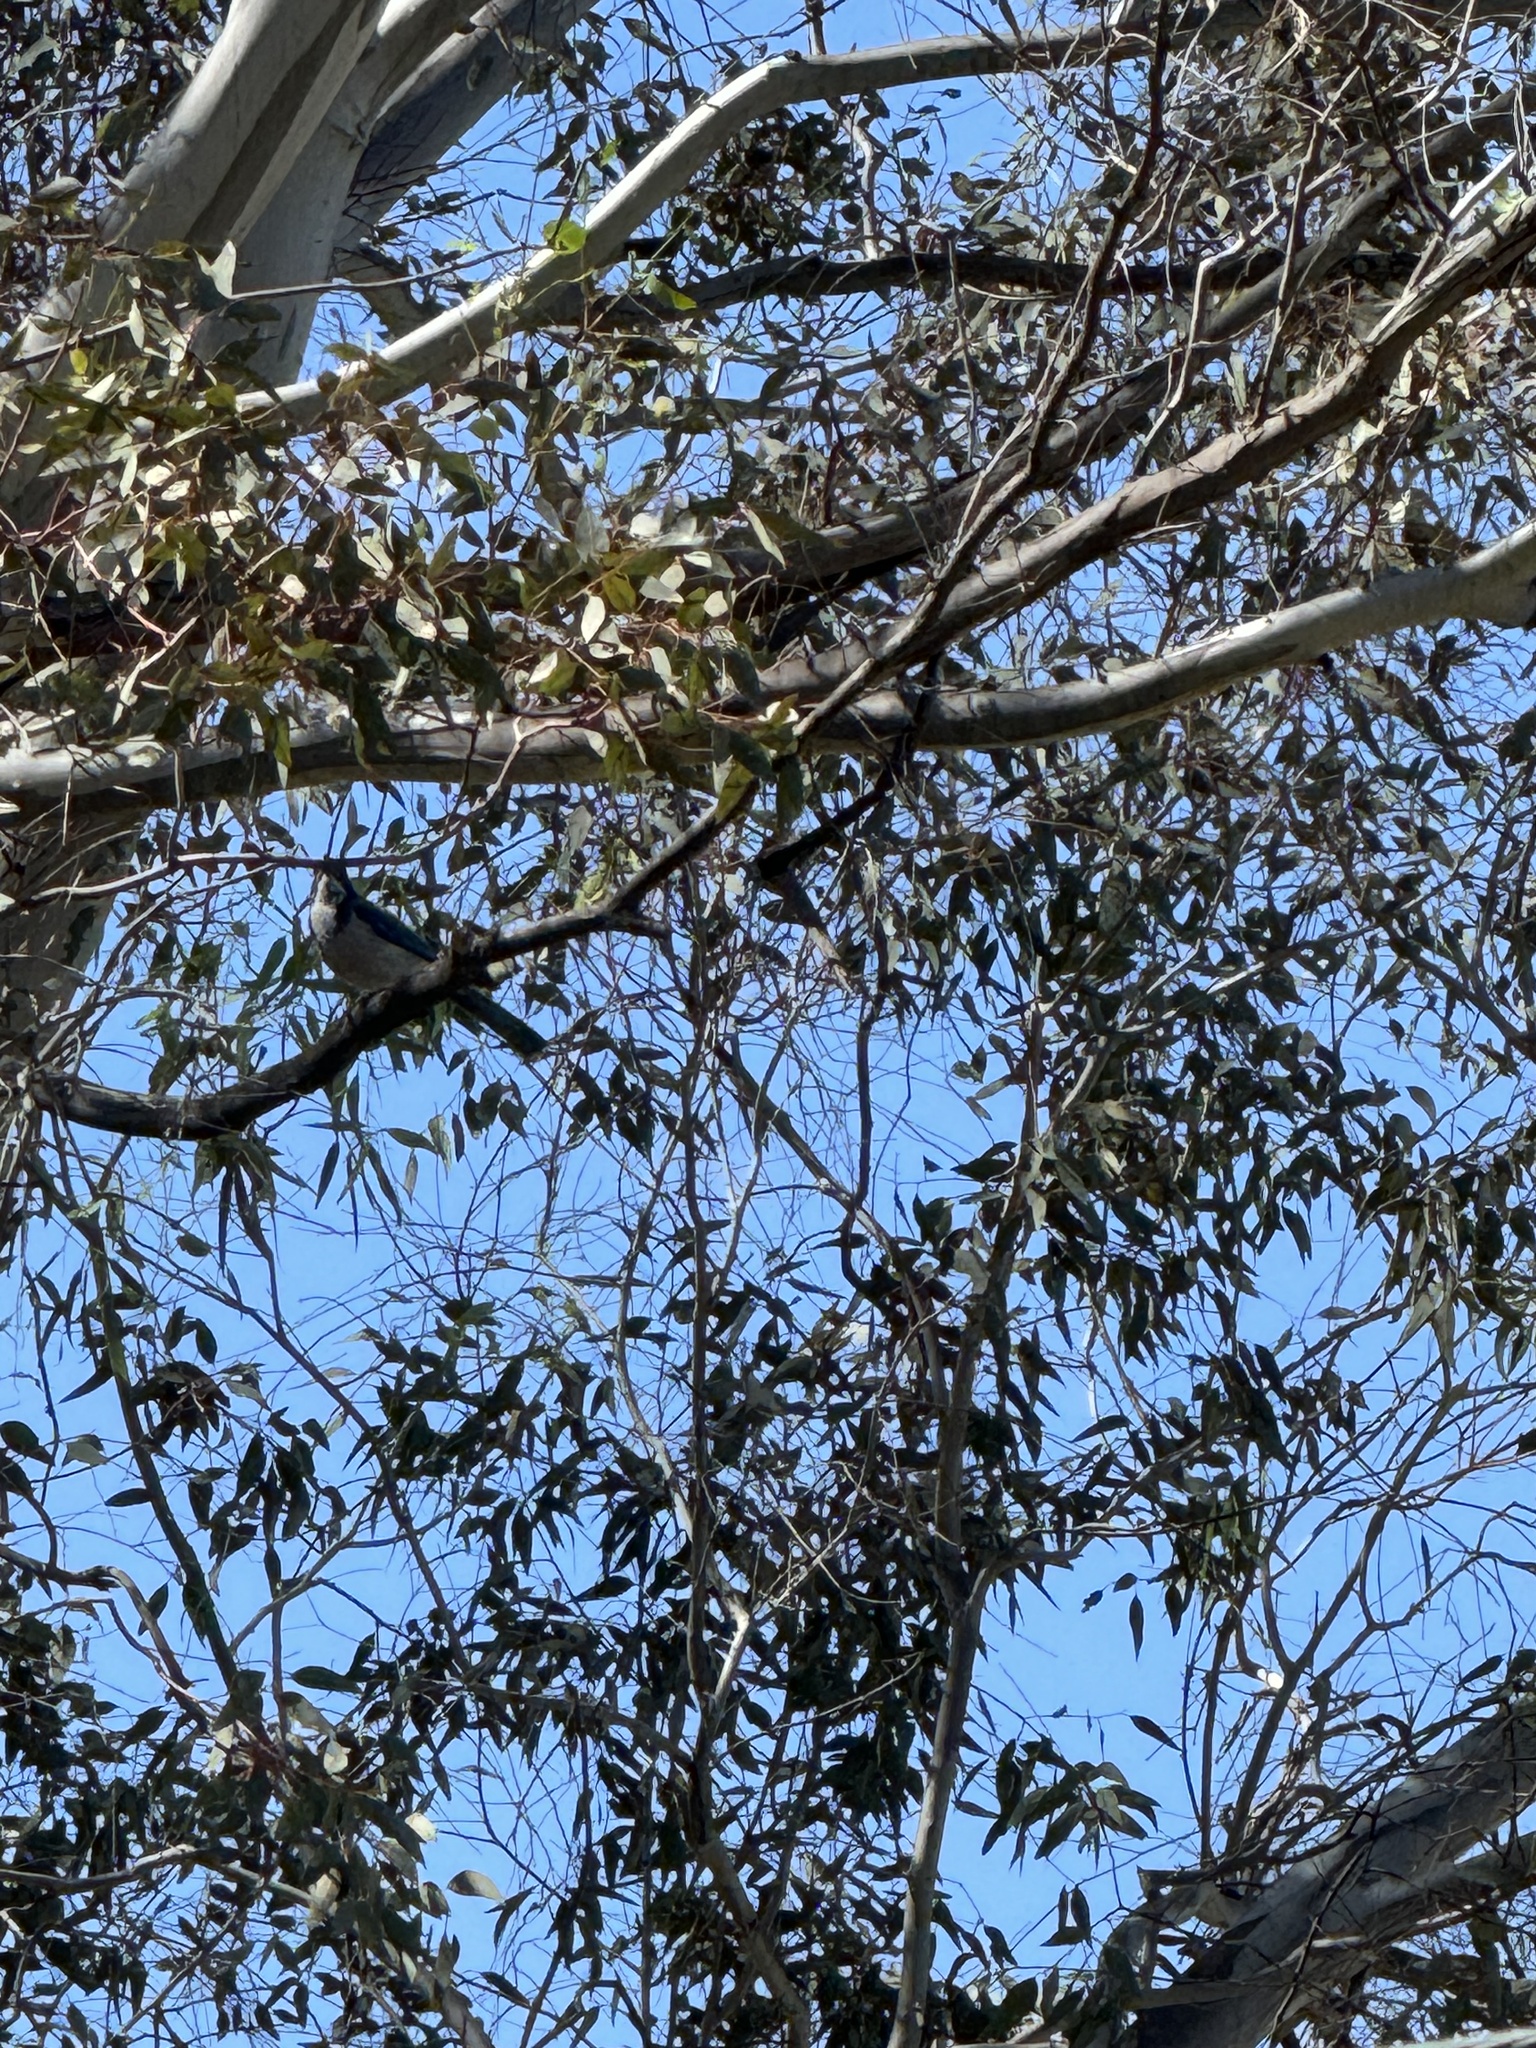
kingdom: Animalia
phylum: Chordata
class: Aves
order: Passeriformes
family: Corvidae
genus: Aphelocoma
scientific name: Aphelocoma californica
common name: California scrub-jay
